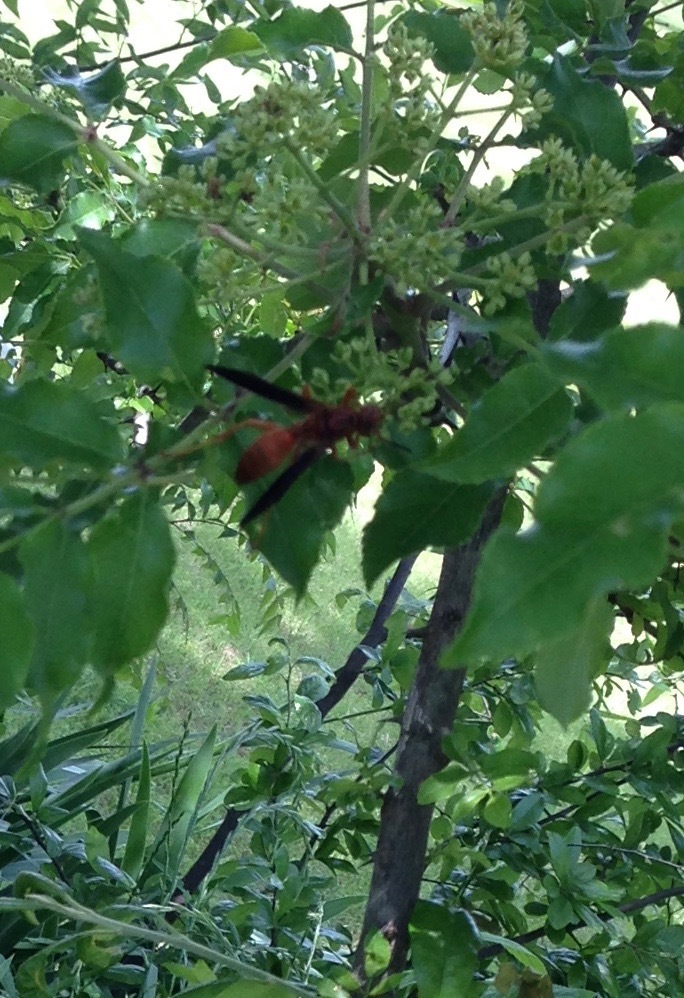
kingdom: Animalia
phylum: Arthropoda
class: Insecta
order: Hymenoptera
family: Vespidae
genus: Fuscopolistes
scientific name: Fuscopolistes
